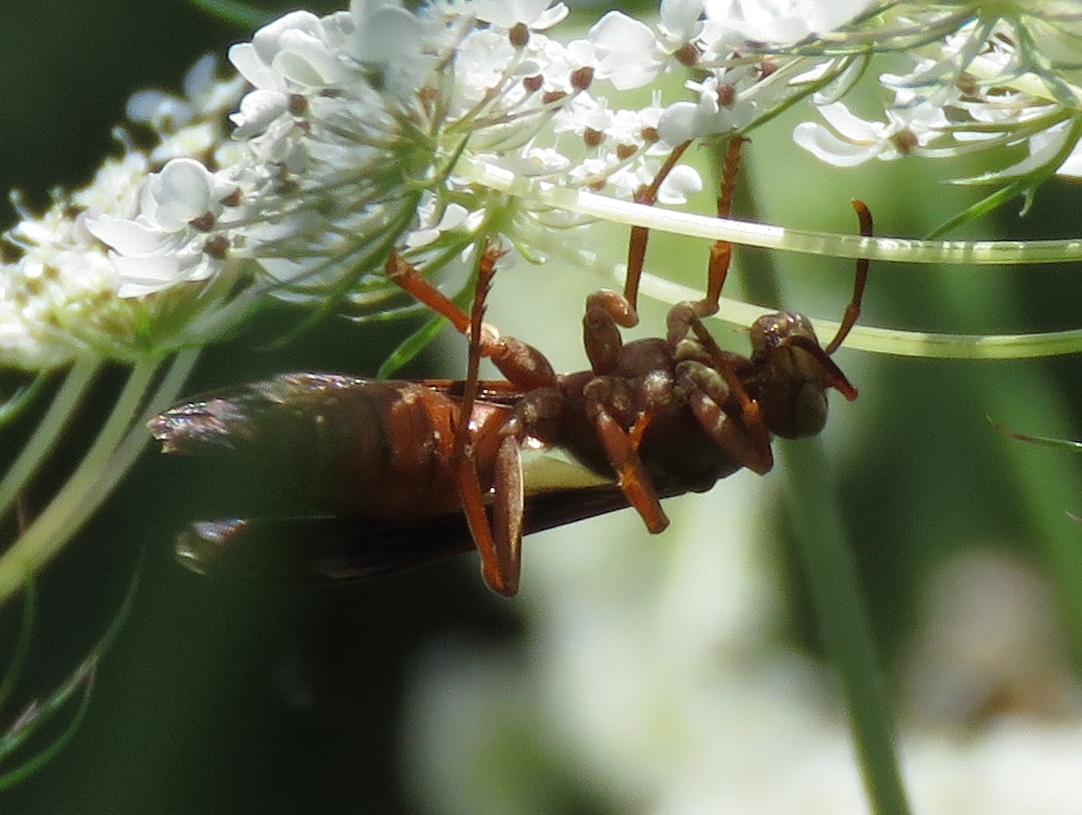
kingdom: Animalia
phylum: Arthropoda
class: Insecta
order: Hymenoptera
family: Vespidae
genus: Fuscopolistes
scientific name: Fuscopolistes
